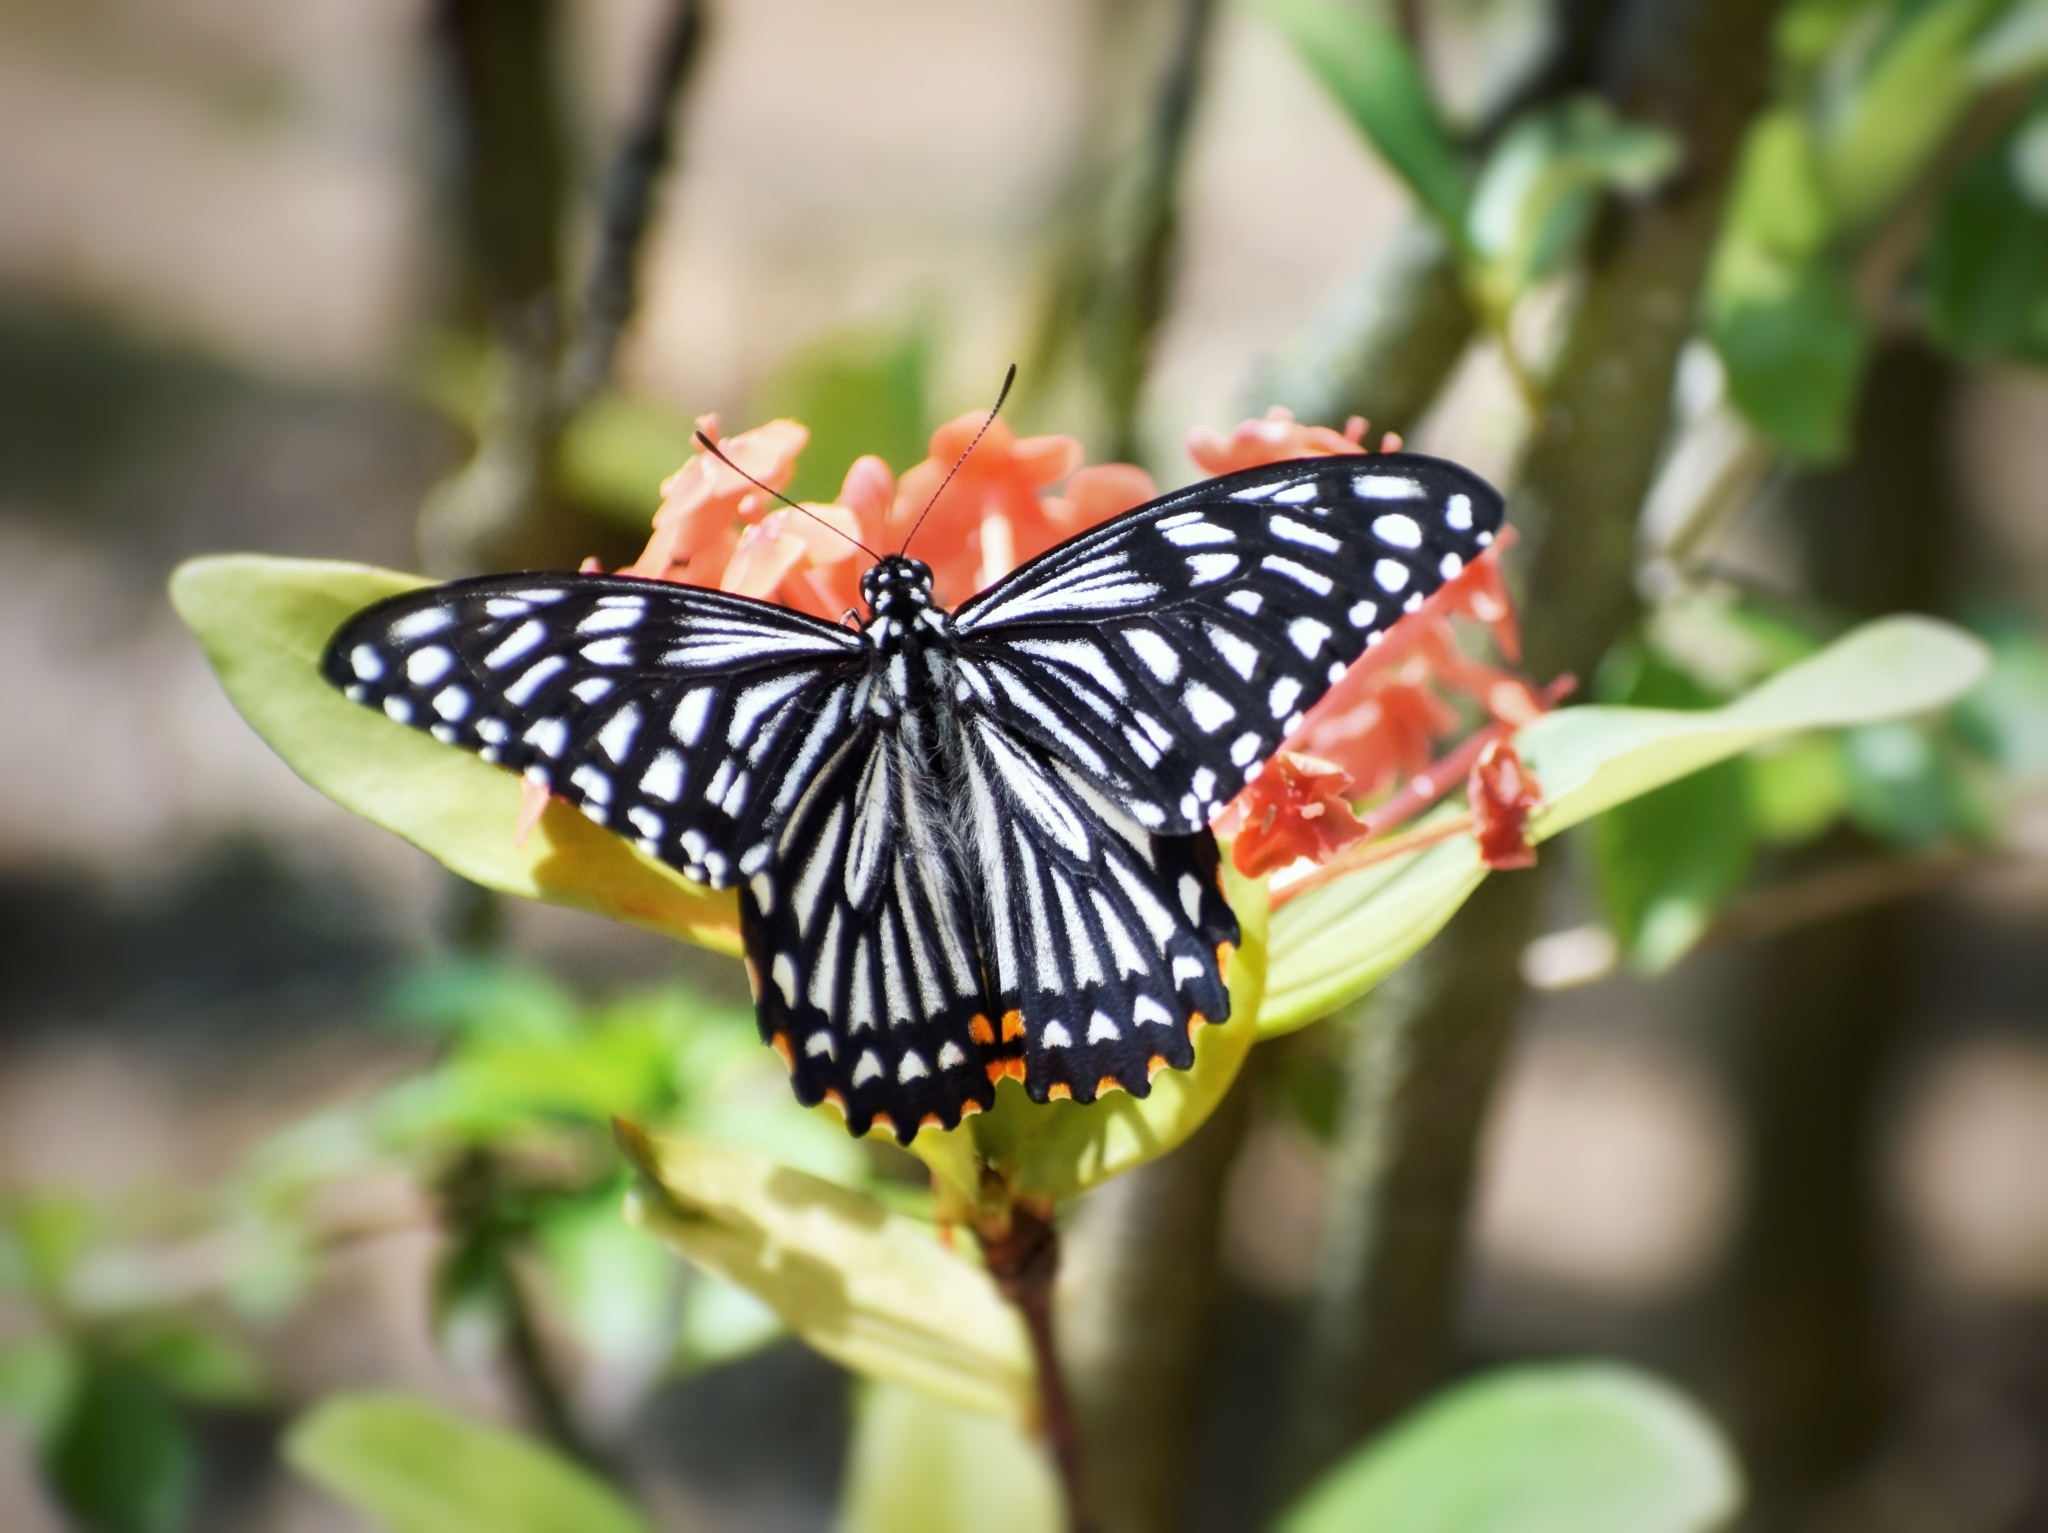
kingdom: Animalia
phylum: Arthropoda
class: Insecta
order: Lepidoptera
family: Papilionidae
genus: Chilasa
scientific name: Chilasa clytia
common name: Common mime
